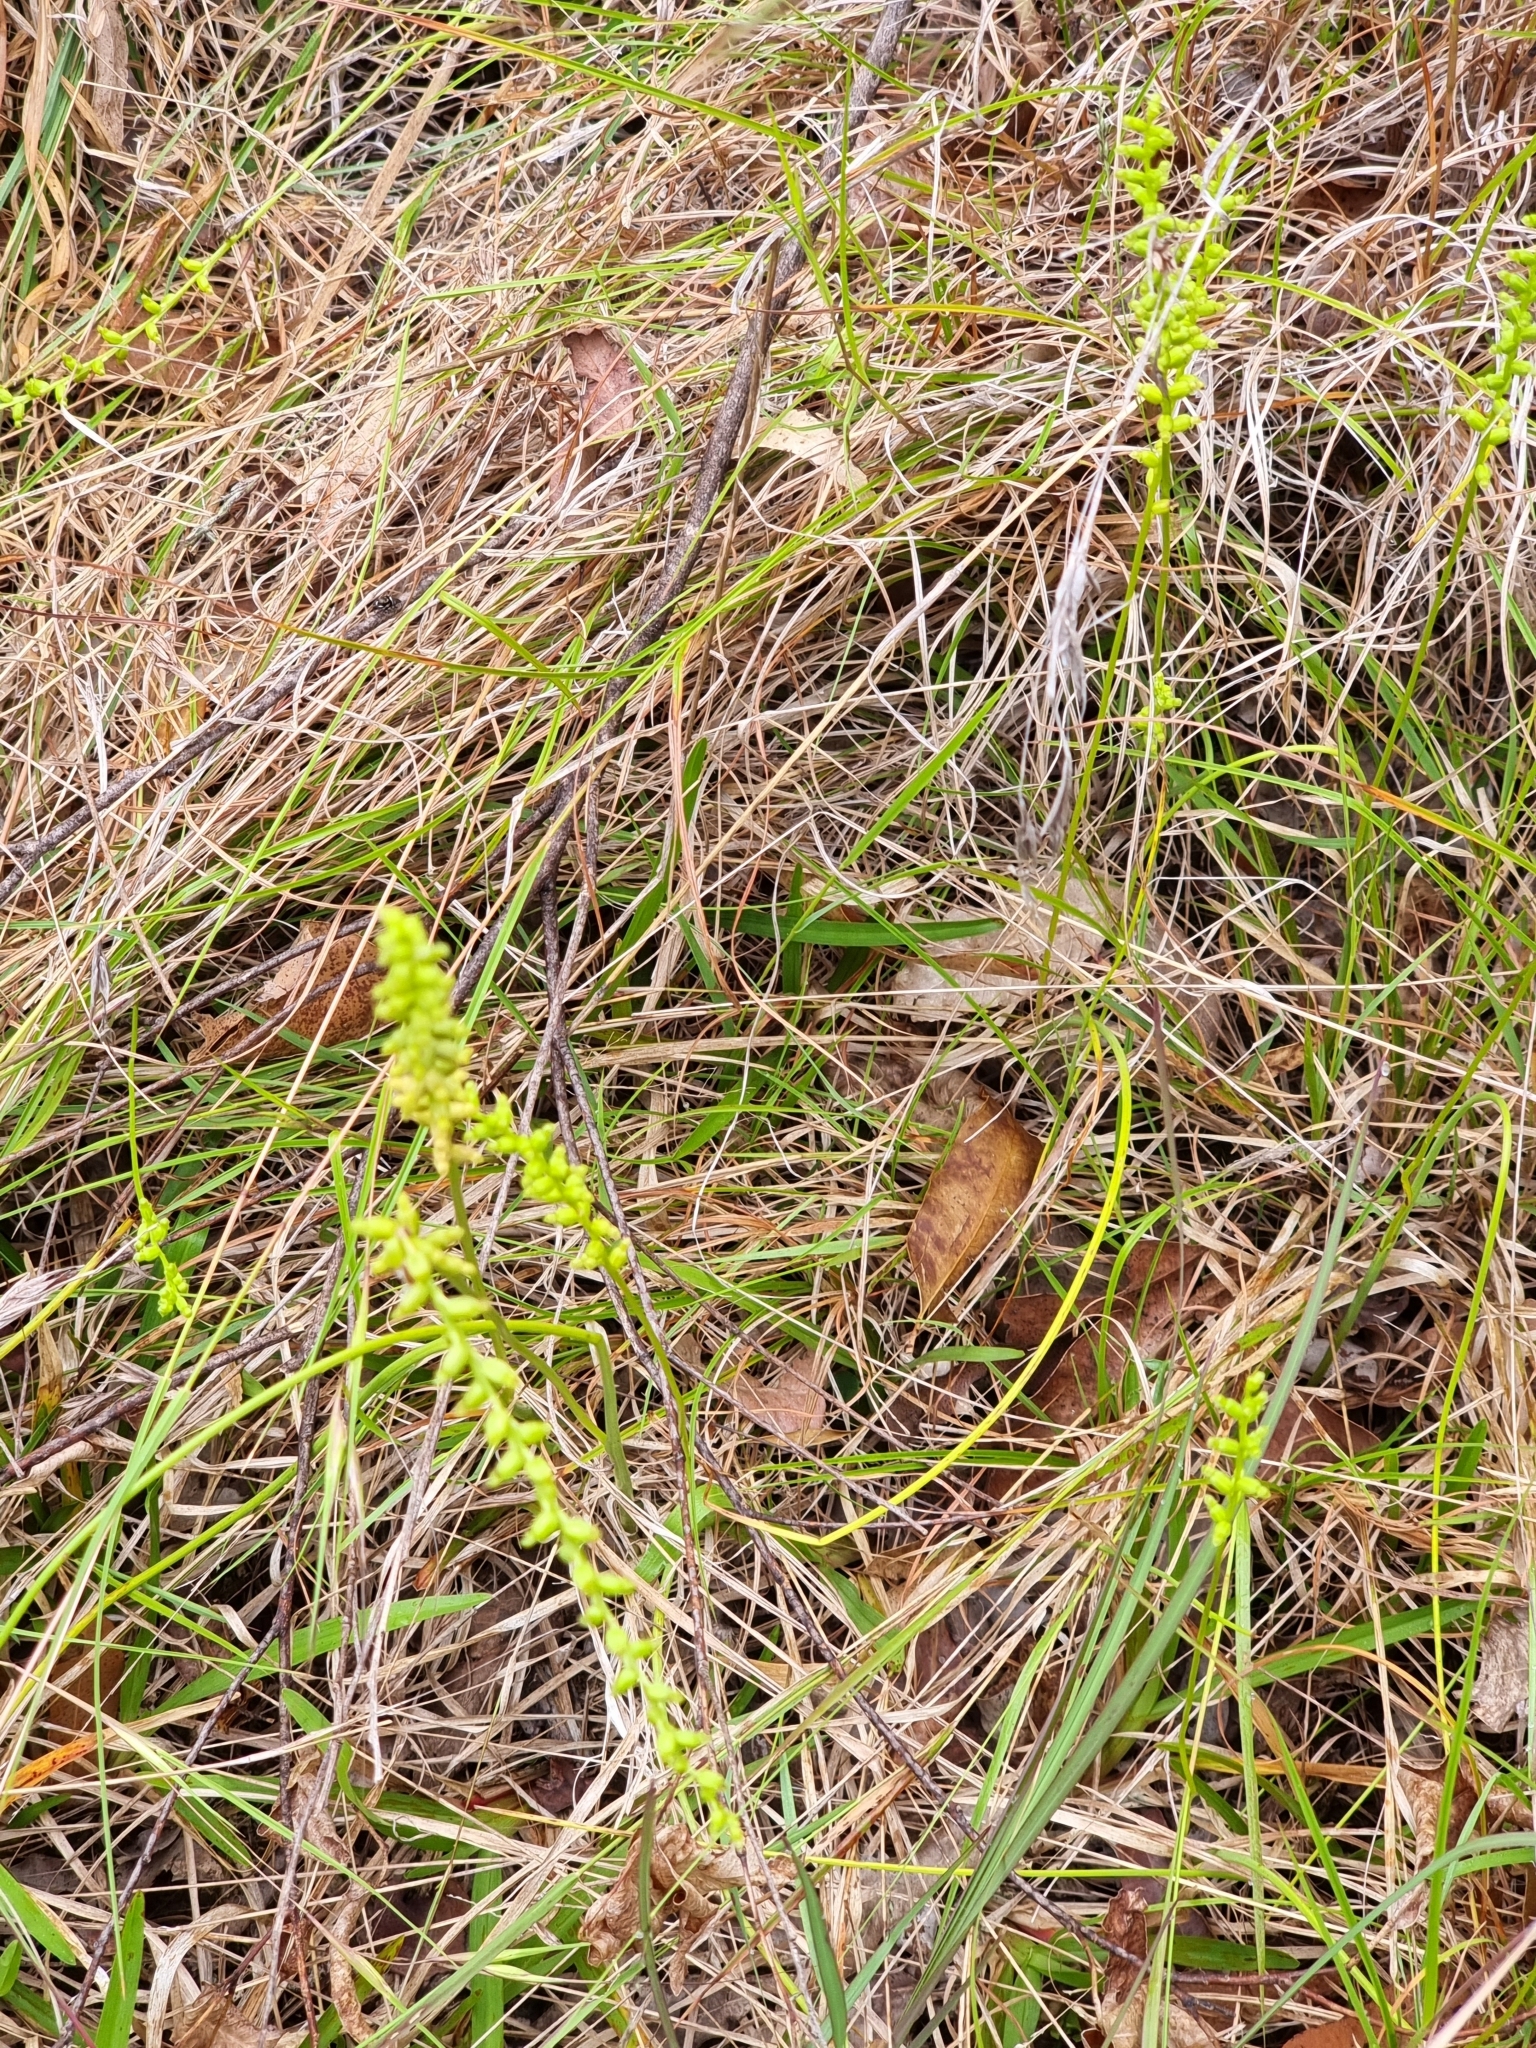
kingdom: Plantae
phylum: Tracheophyta
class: Liliopsida
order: Asparagales
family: Orchidaceae
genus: Microtis
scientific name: Microtis parviflora
